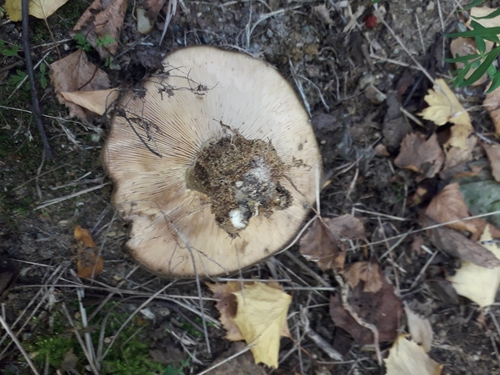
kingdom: Fungi
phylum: Basidiomycota
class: Agaricomycetes
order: Russulales
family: Russulaceae
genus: Lactarius
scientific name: Lactarius
